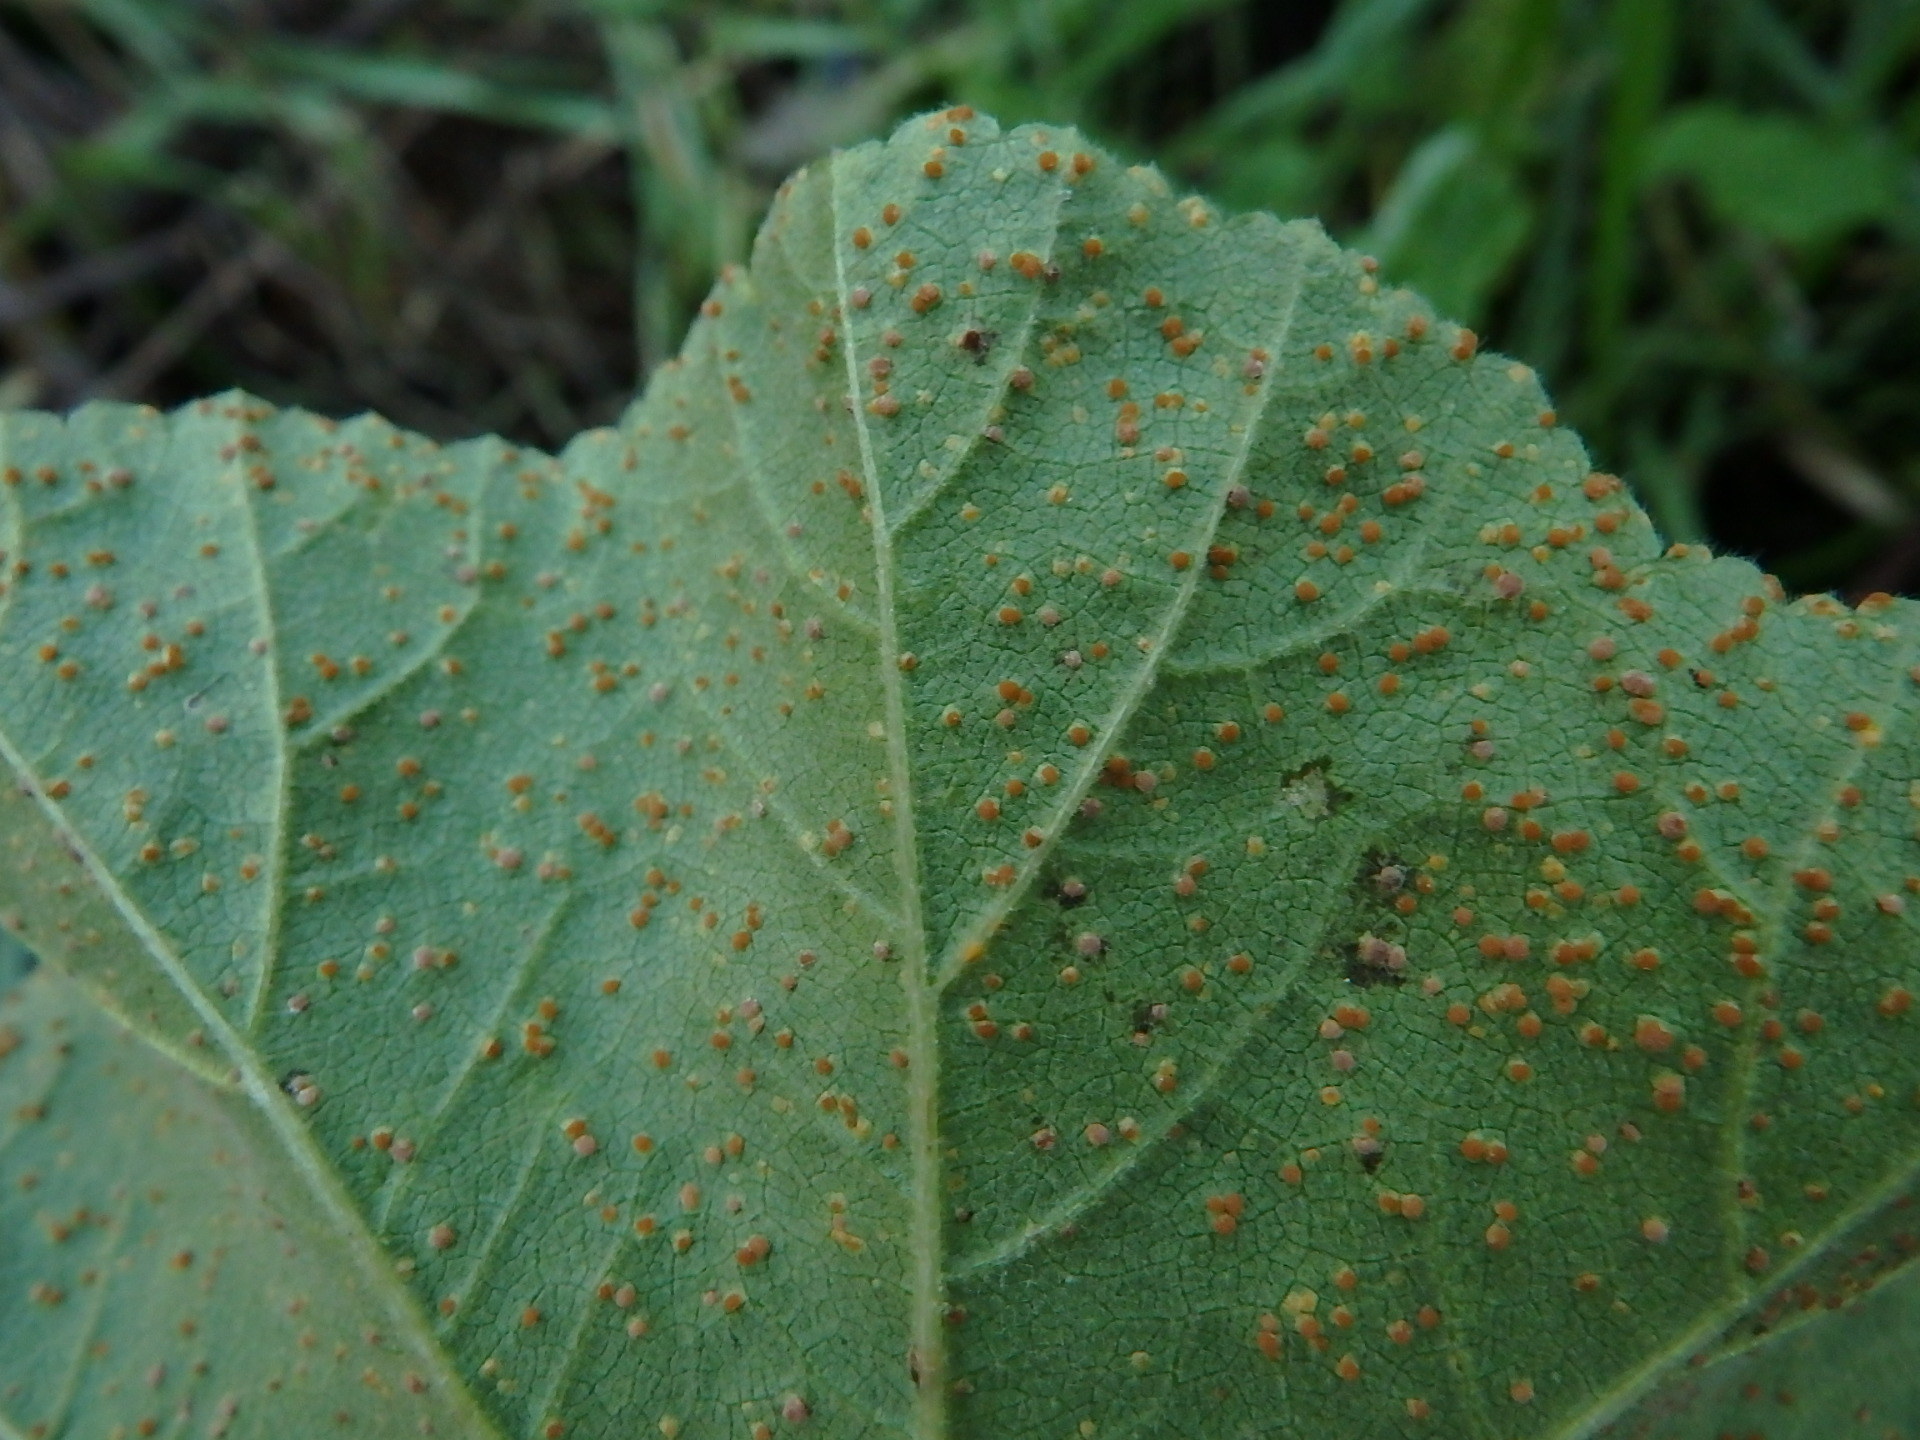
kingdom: Fungi
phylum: Basidiomycota
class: Pucciniomycetes
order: Pucciniales
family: Pucciniaceae
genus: Puccinia
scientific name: Puccinia malvacearum
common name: Hollyhock rust
